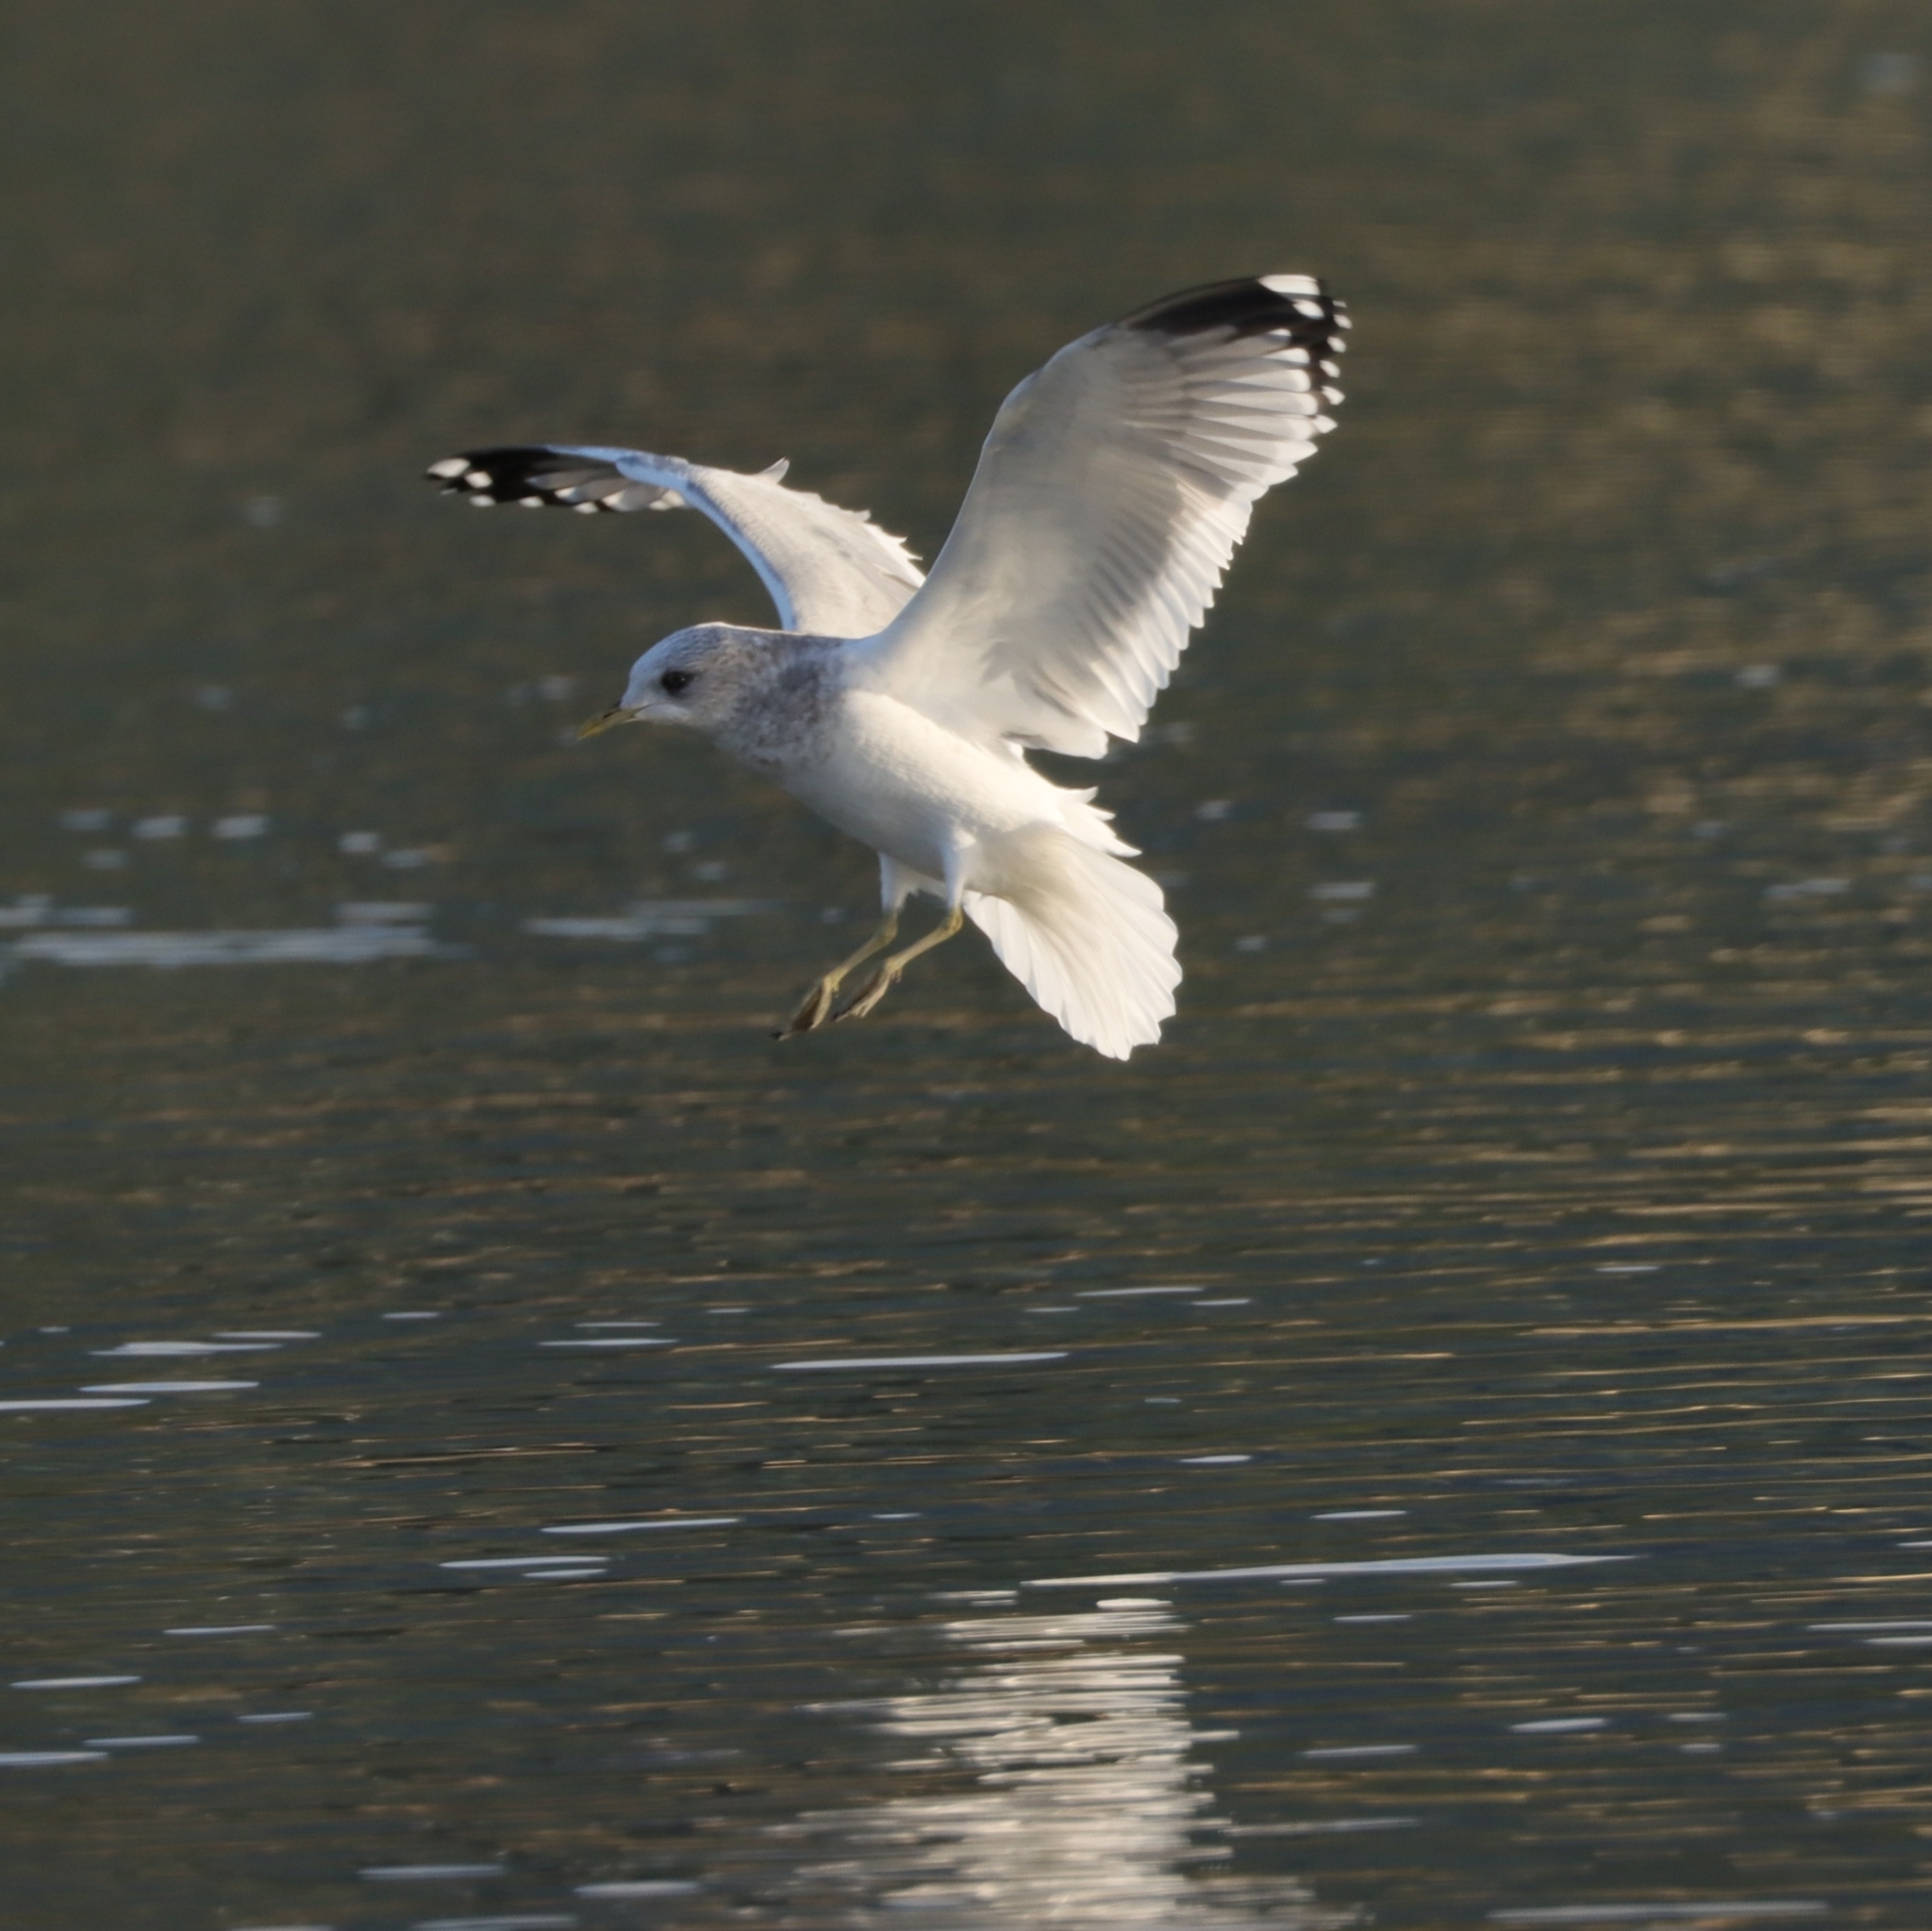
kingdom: Animalia
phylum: Chordata
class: Aves
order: Charadriiformes
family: Laridae
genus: Larus
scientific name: Larus brachyrhynchus
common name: Short-billed gull
